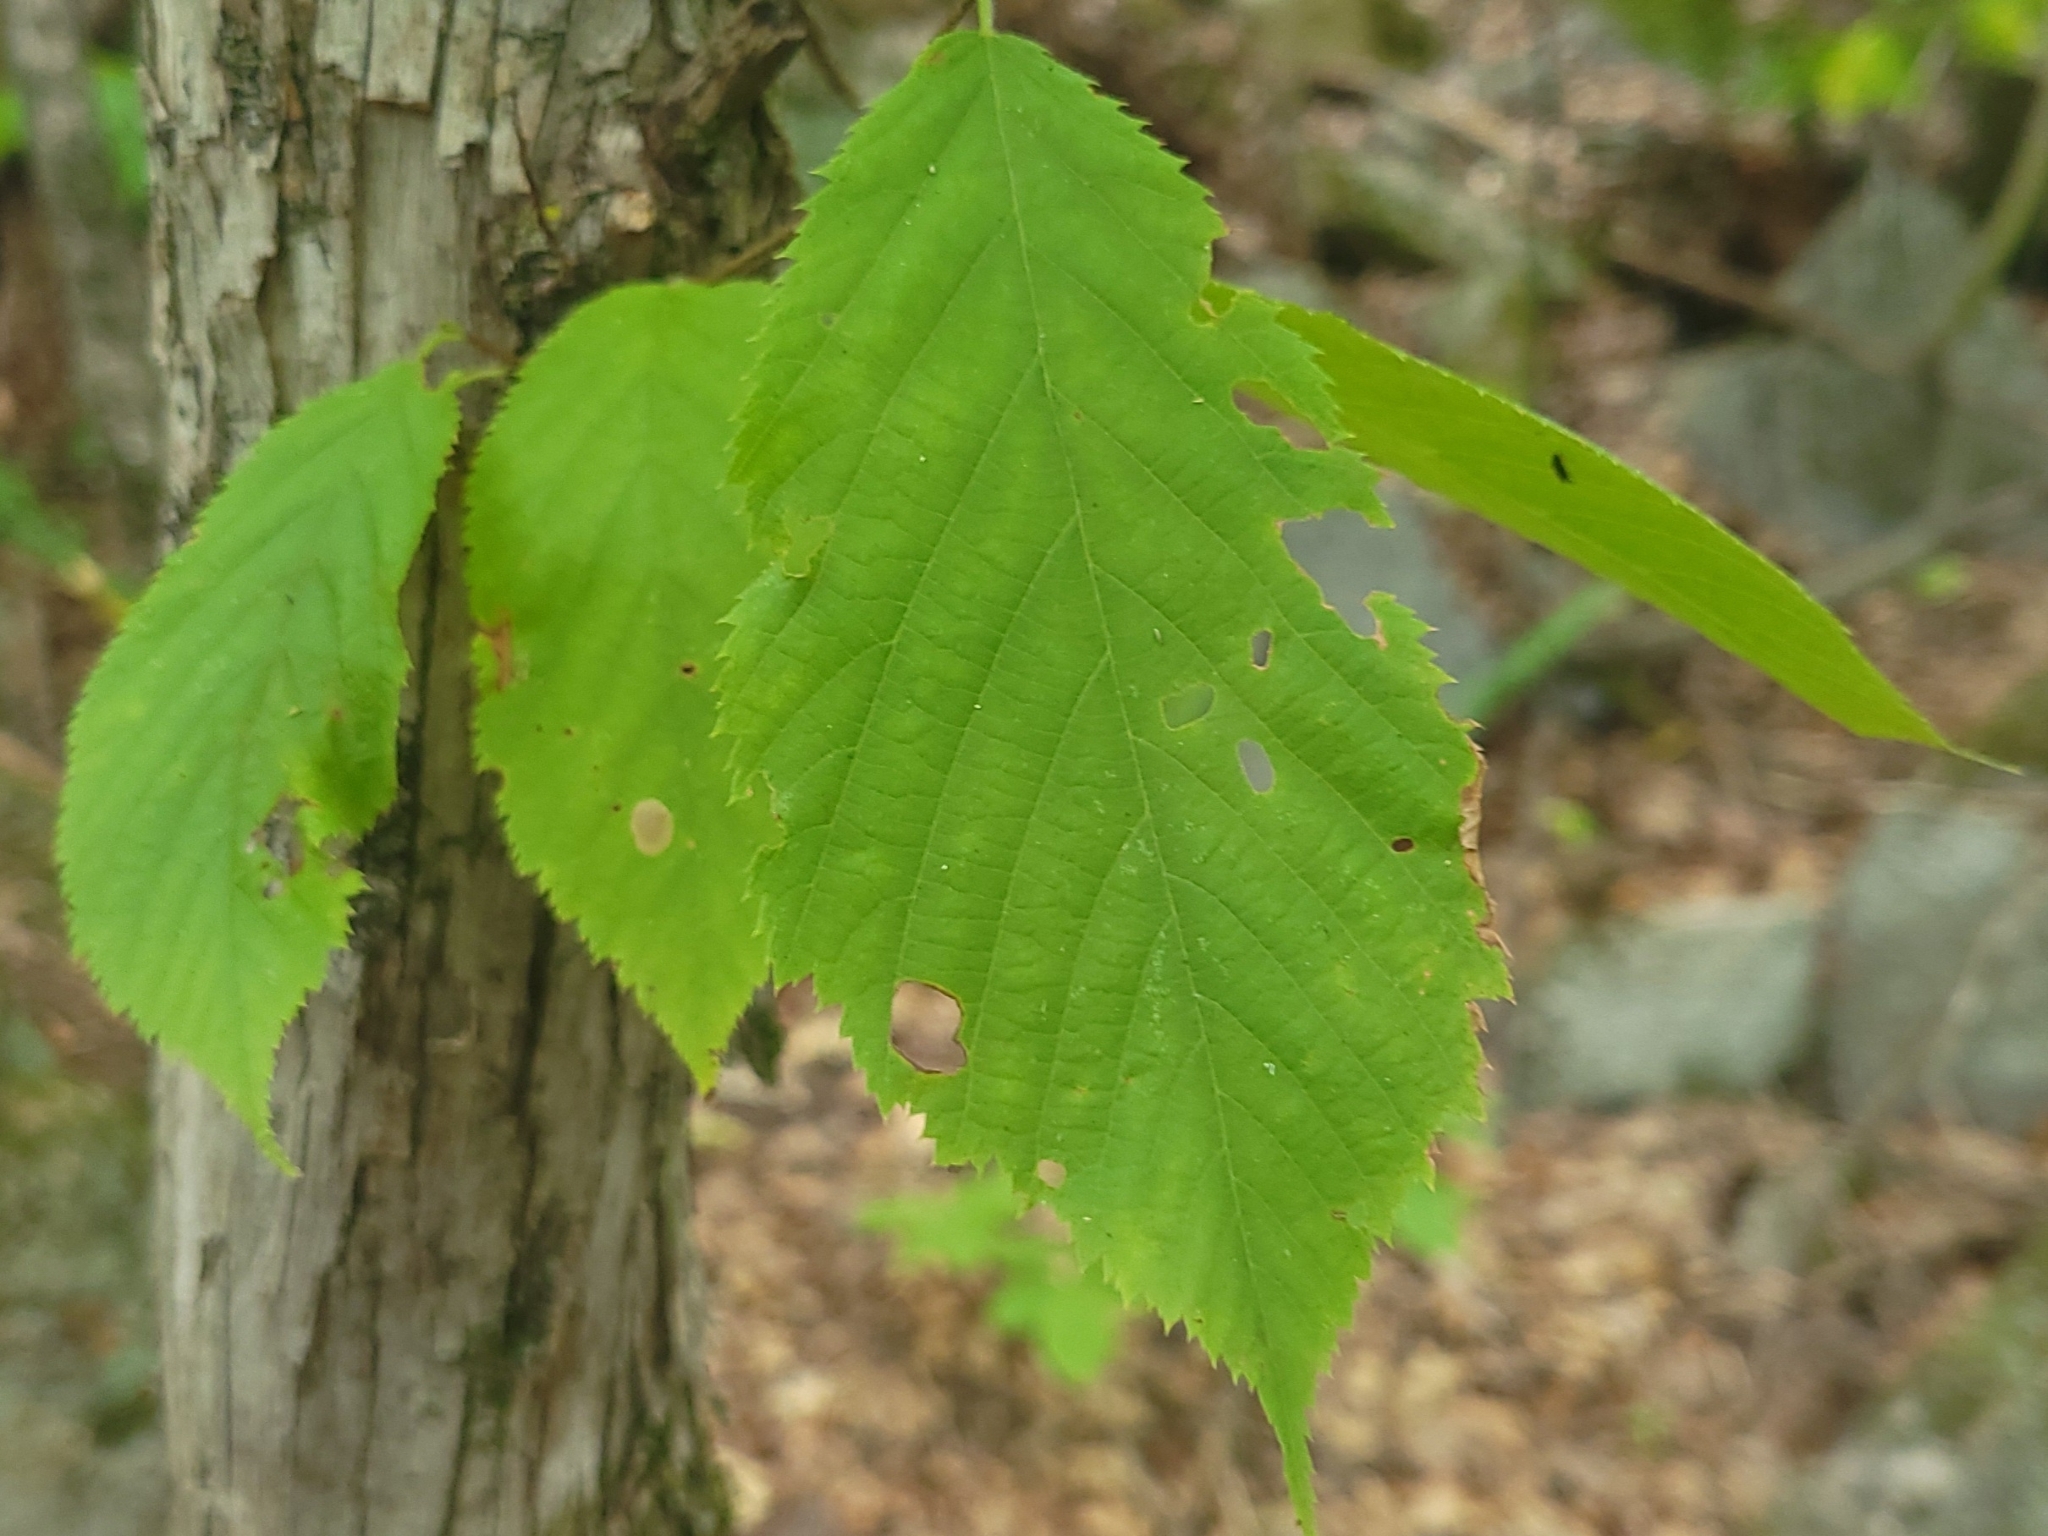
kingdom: Plantae
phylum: Tracheophyta
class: Magnoliopsida
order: Fagales
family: Betulaceae
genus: Ostrya
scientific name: Ostrya virginiana
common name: Ironwood
